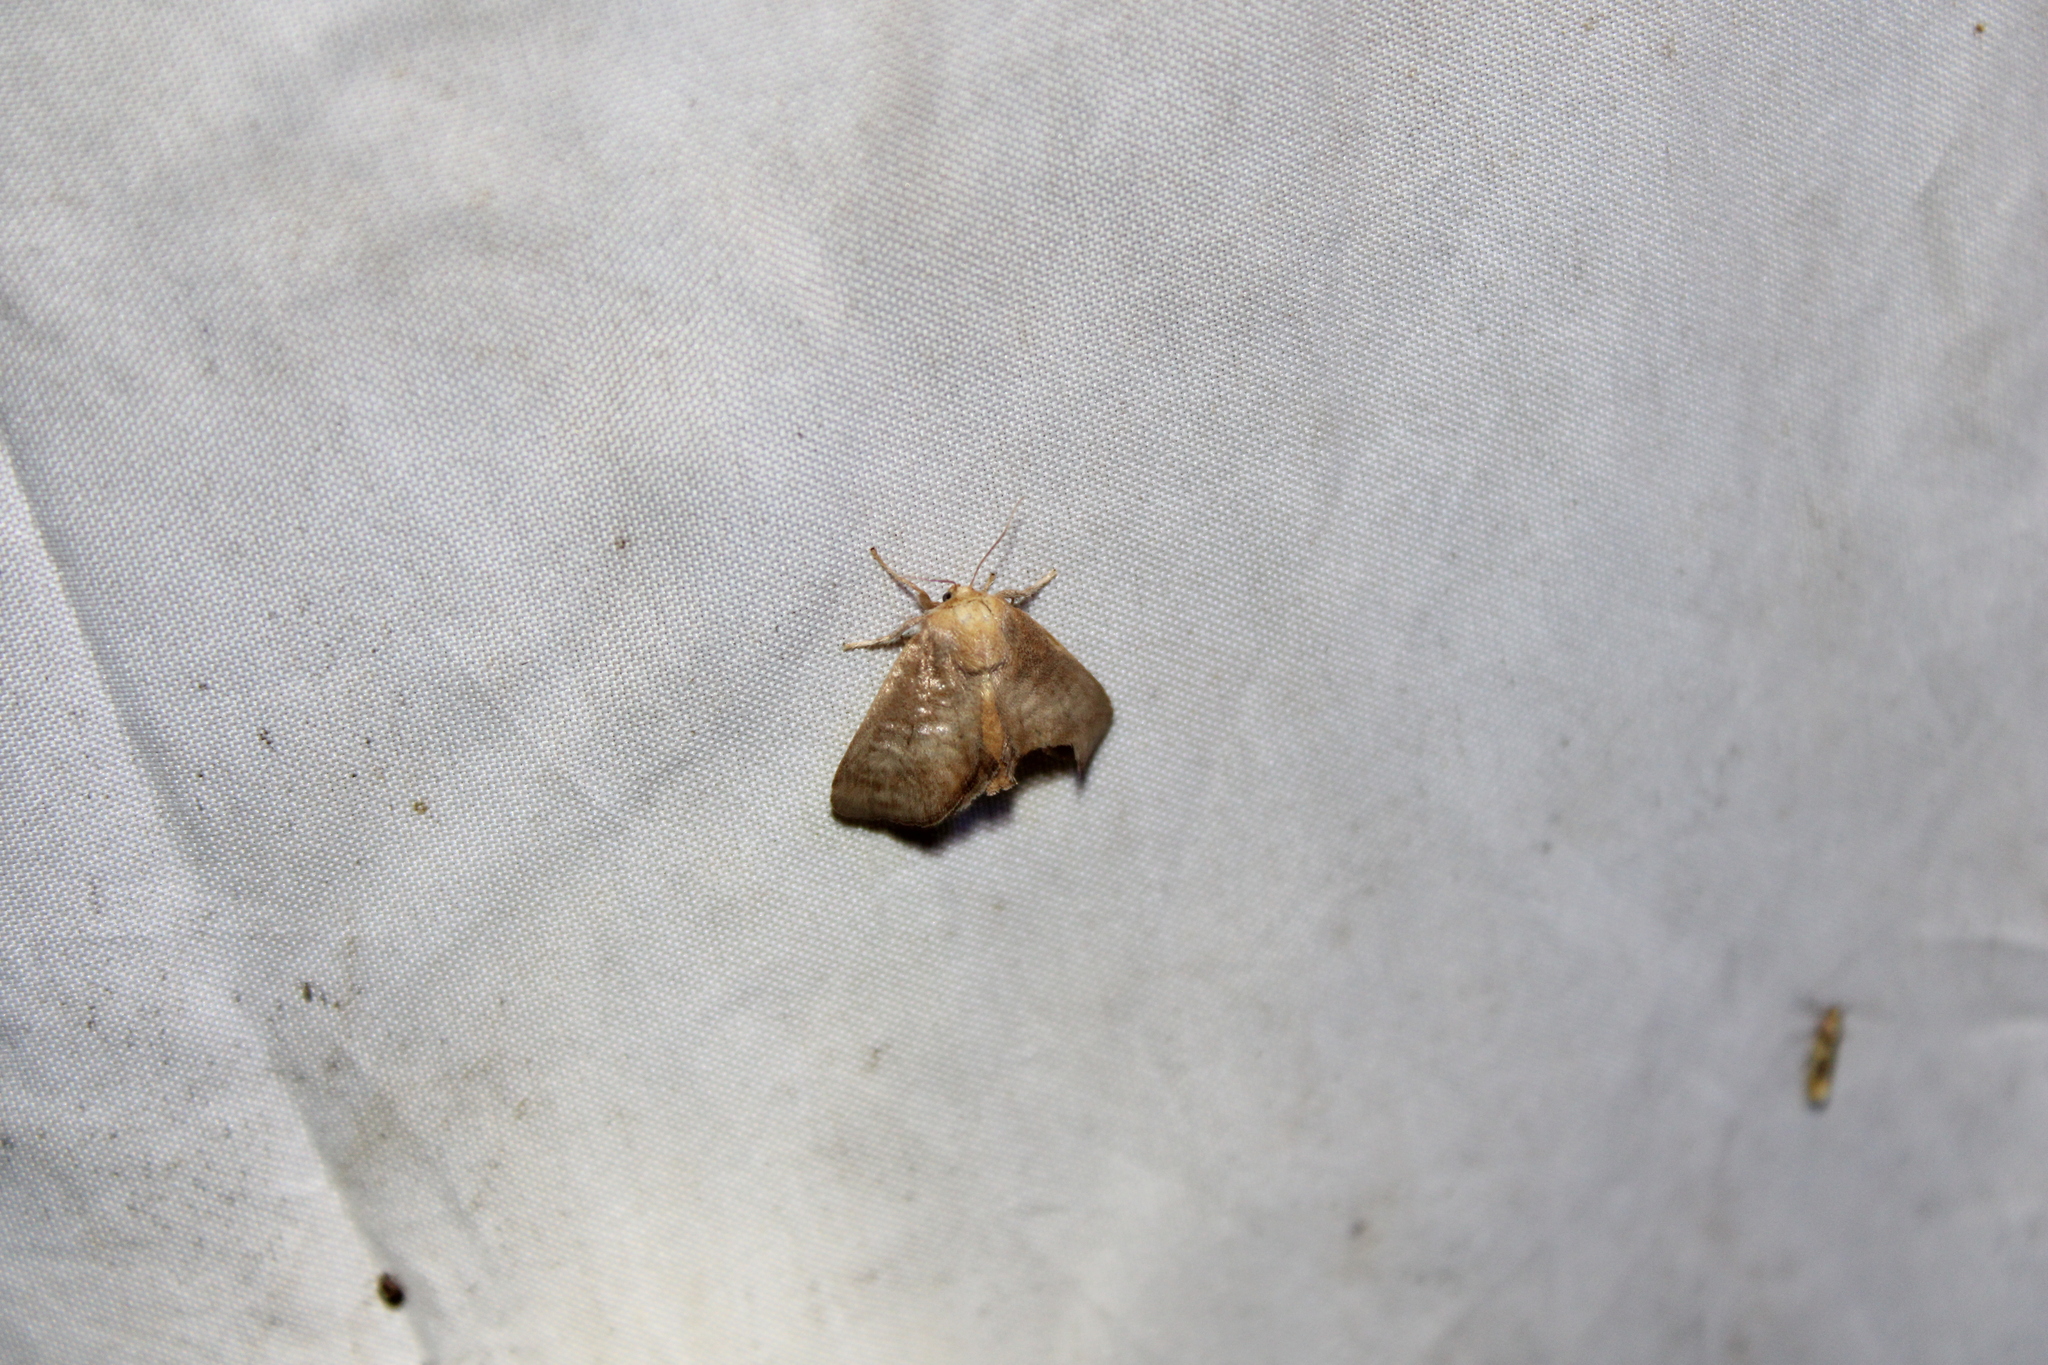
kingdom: Animalia
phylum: Arthropoda
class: Insecta
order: Lepidoptera
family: Limacodidae
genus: Isa
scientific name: Isa textula
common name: Crowned slug moth
